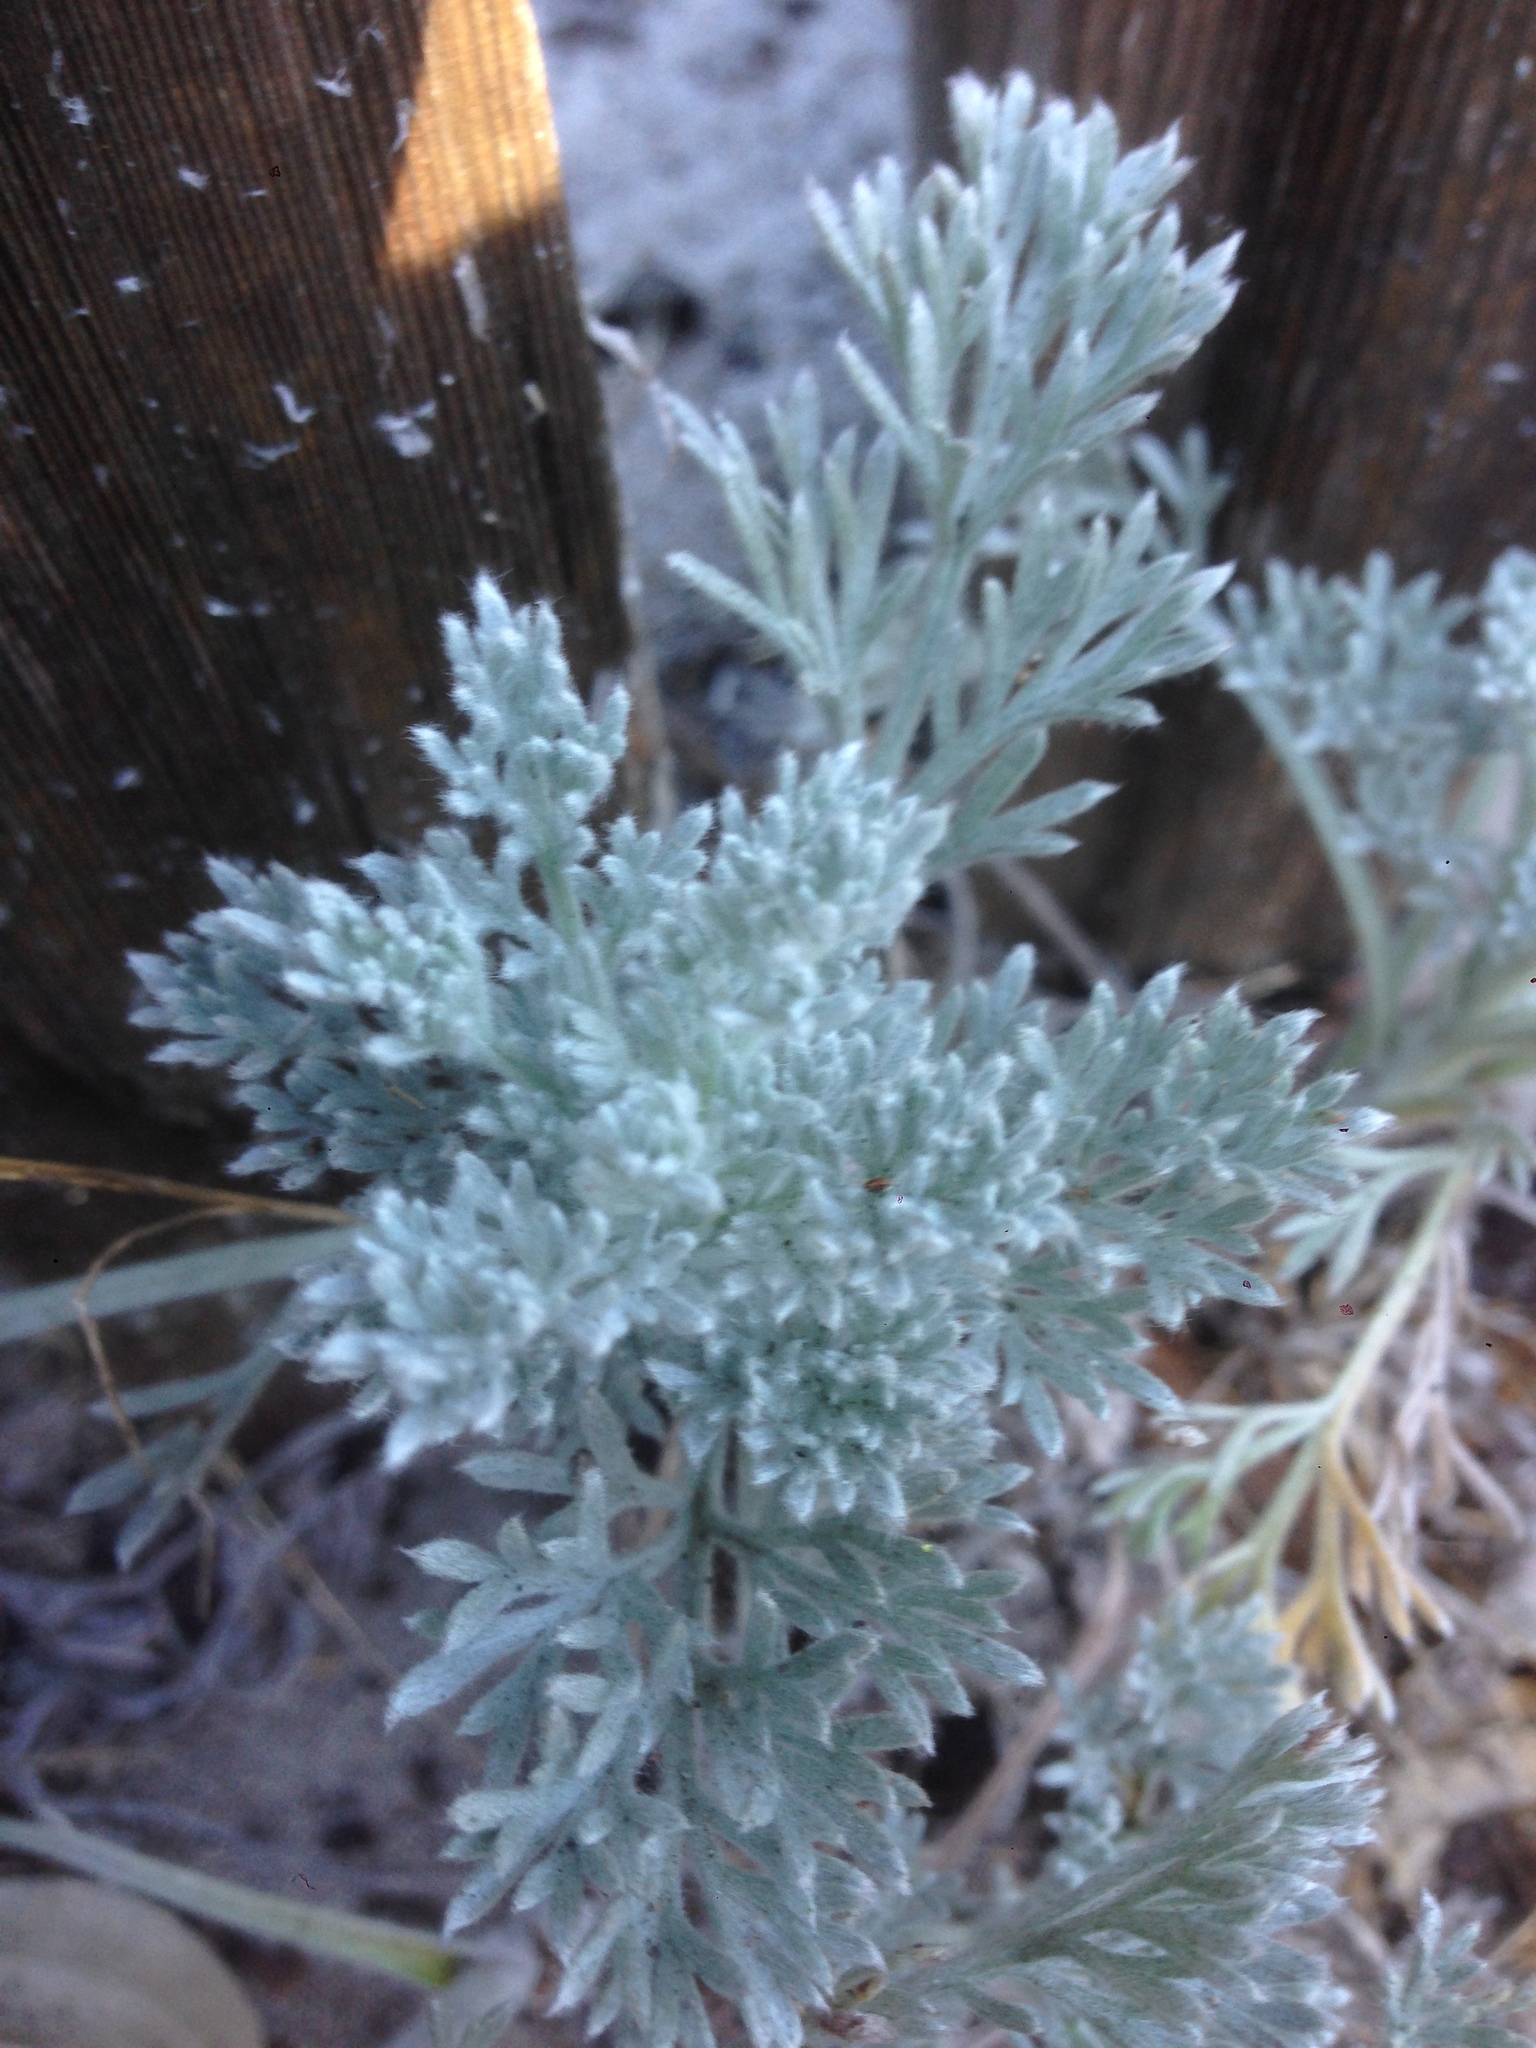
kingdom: Plantae
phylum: Tracheophyta
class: Magnoliopsida
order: Asterales
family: Asteraceae
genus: Artemisia
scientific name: Artemisia pycnocephala
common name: Coastal sagewort
